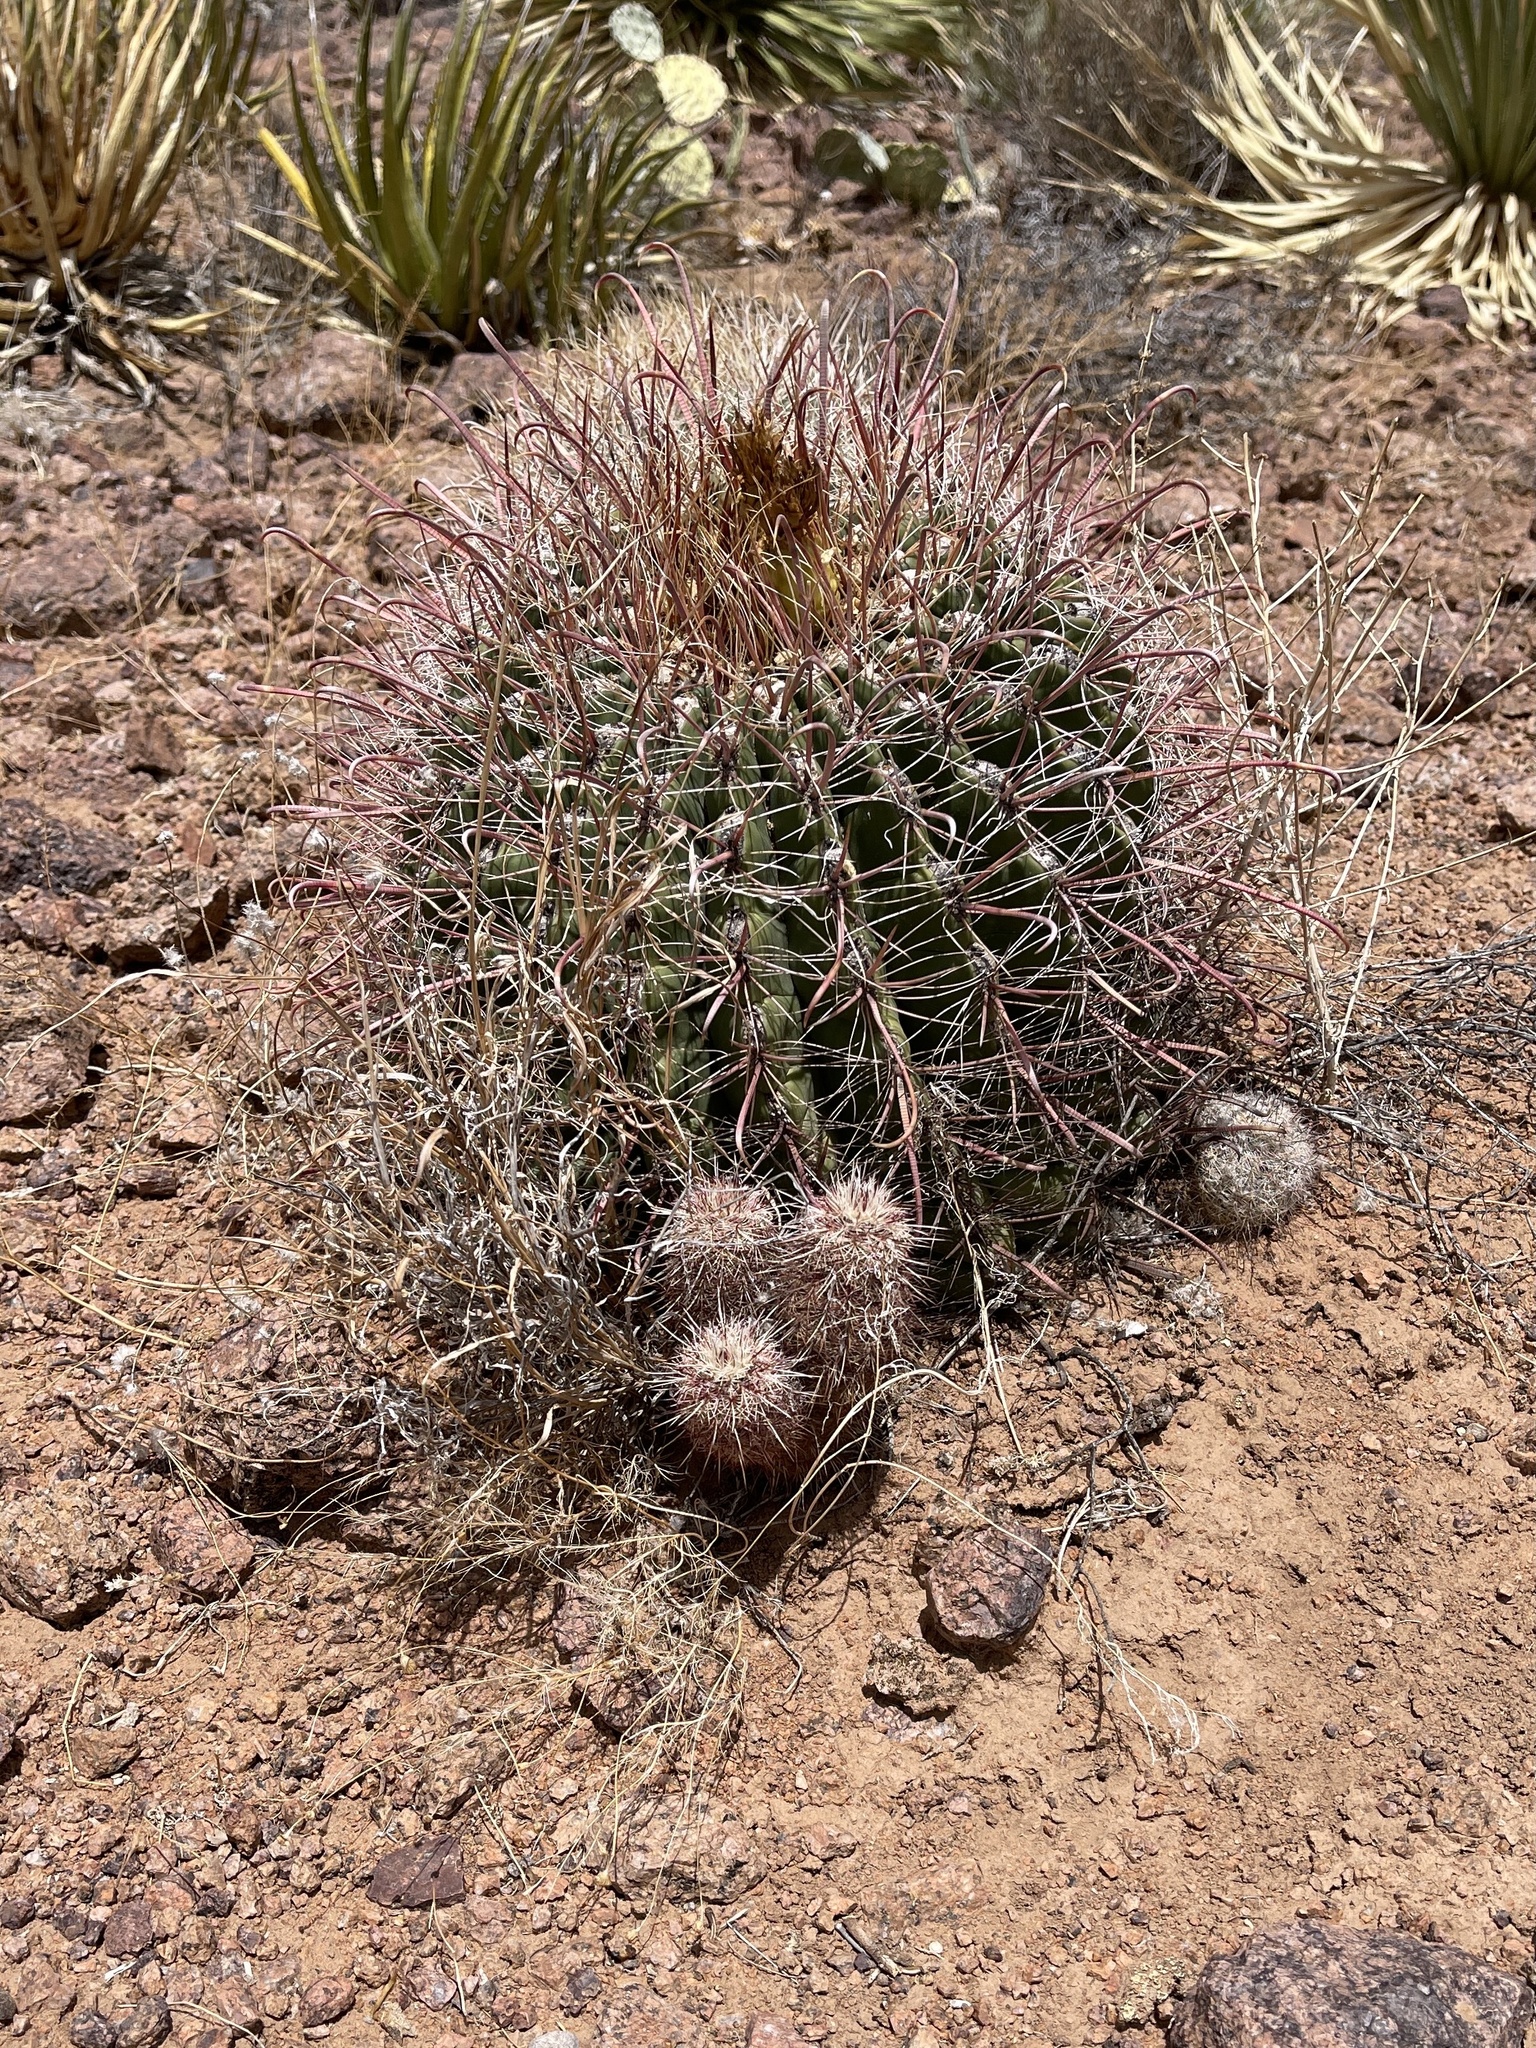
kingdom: Plantae
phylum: Tracheophyta
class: Magnoliopsida
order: Caryophyllales
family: Cactaceae
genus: Echinocereus
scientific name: Echinocereus viridiflorus
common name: Nylon hedgehog cactus
